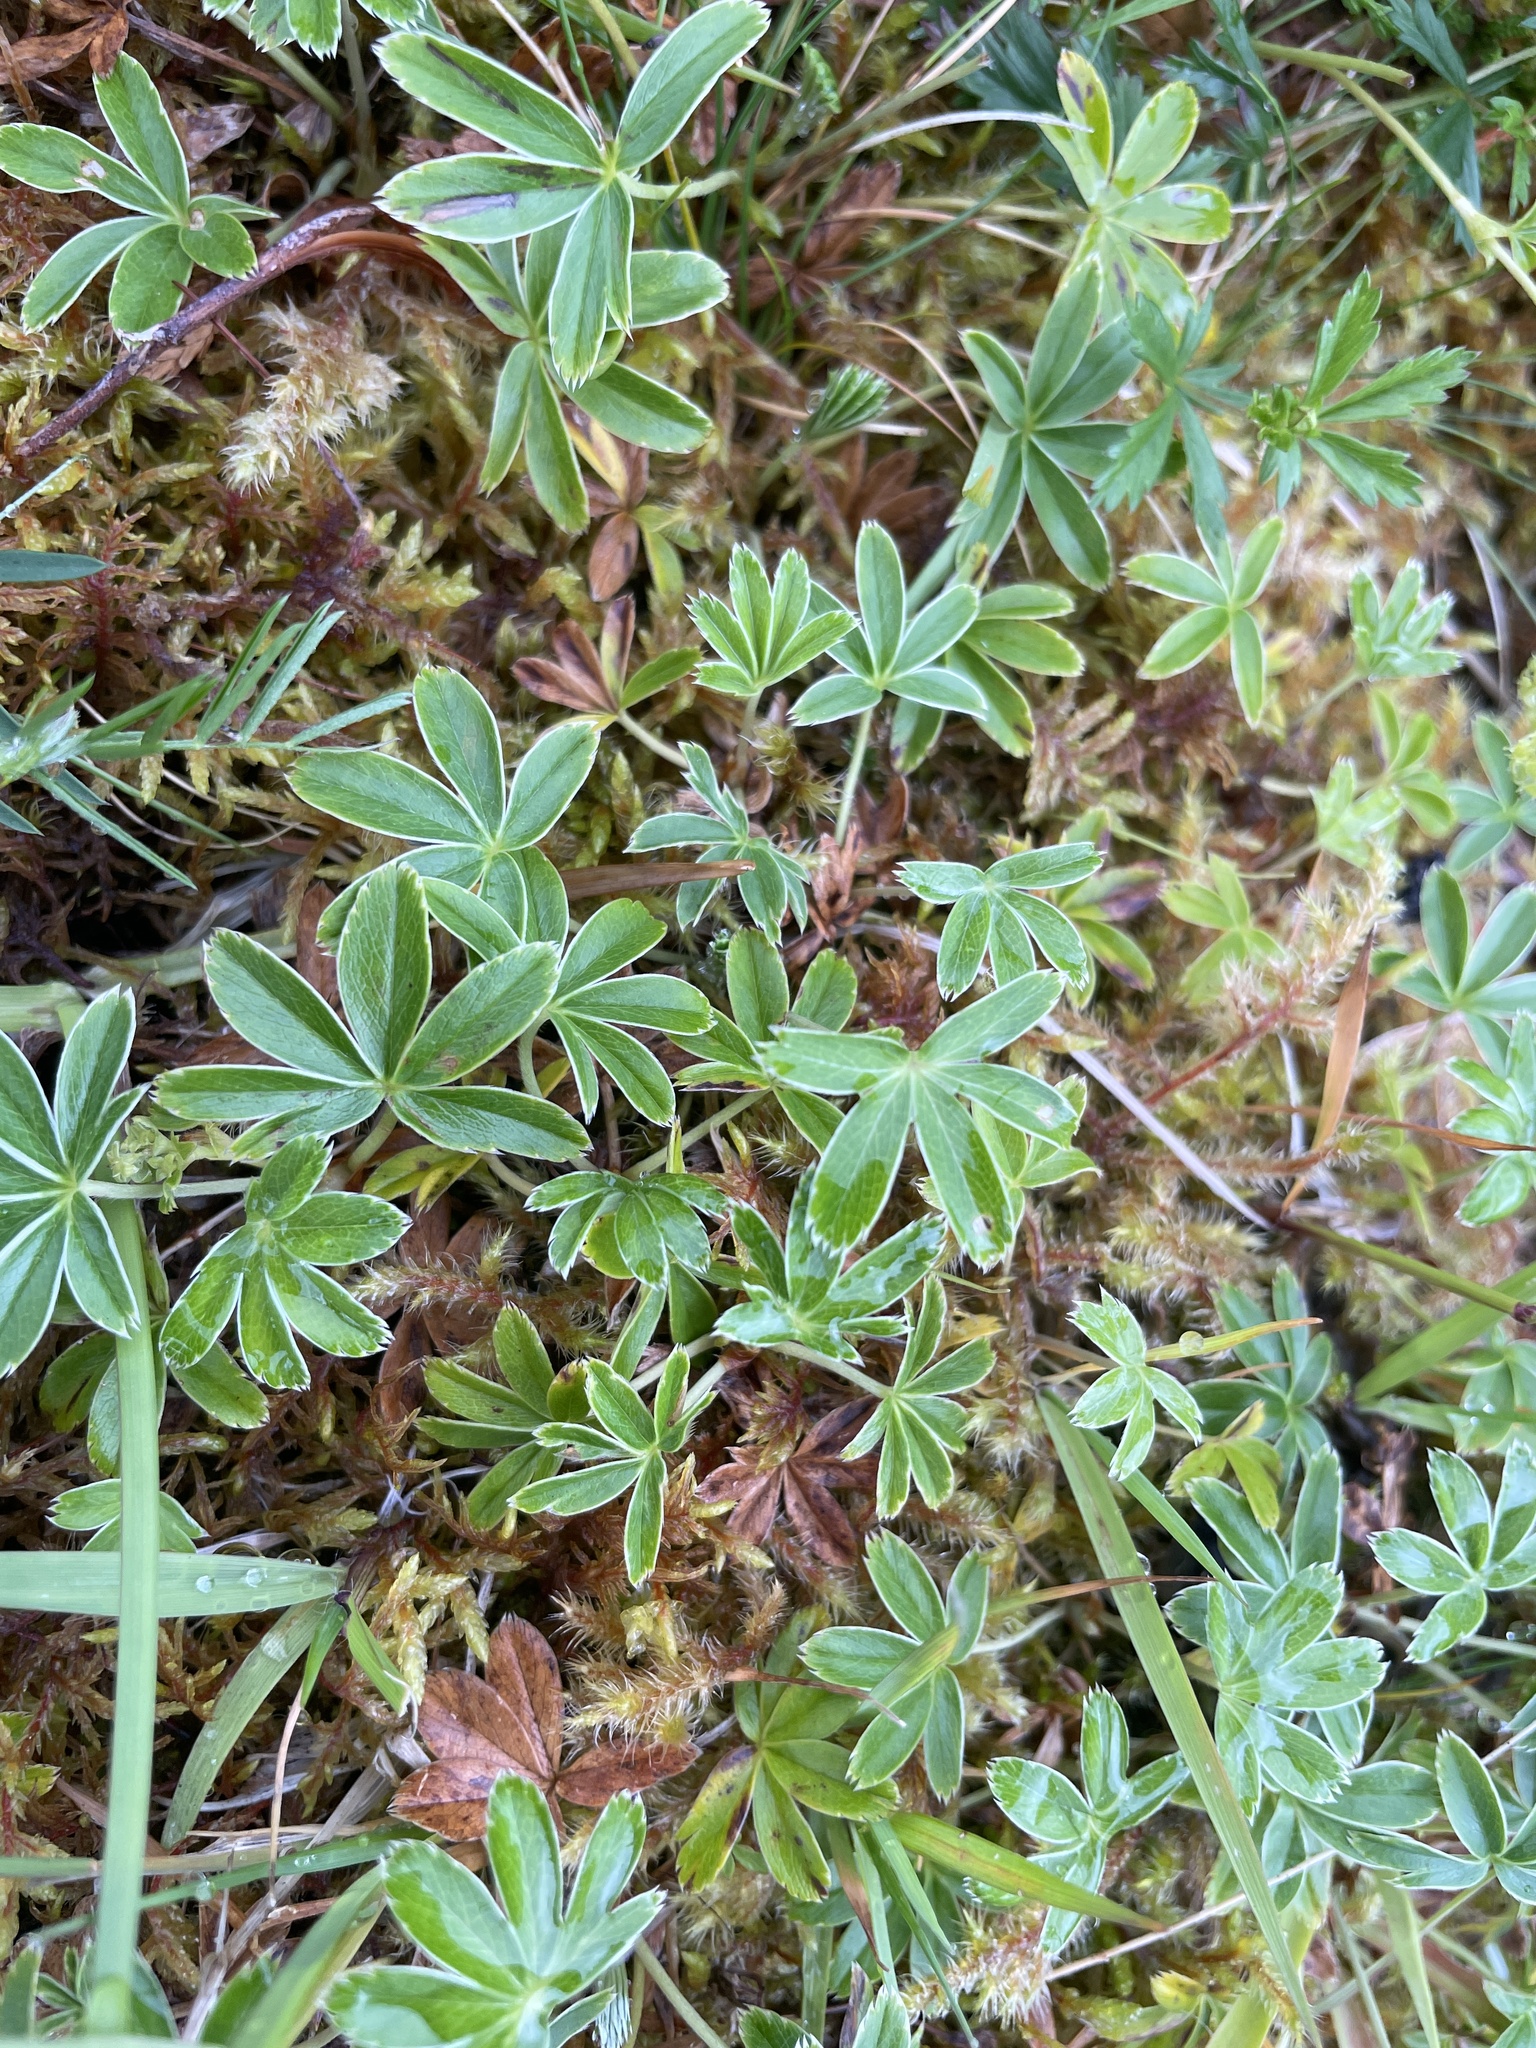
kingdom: Plantae
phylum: Tracheophyta
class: Magnoliopsida
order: Rosales
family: Rosaceae
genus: Alchemilla
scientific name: Alchemilla alpina
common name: Alpine lady's-mantle
